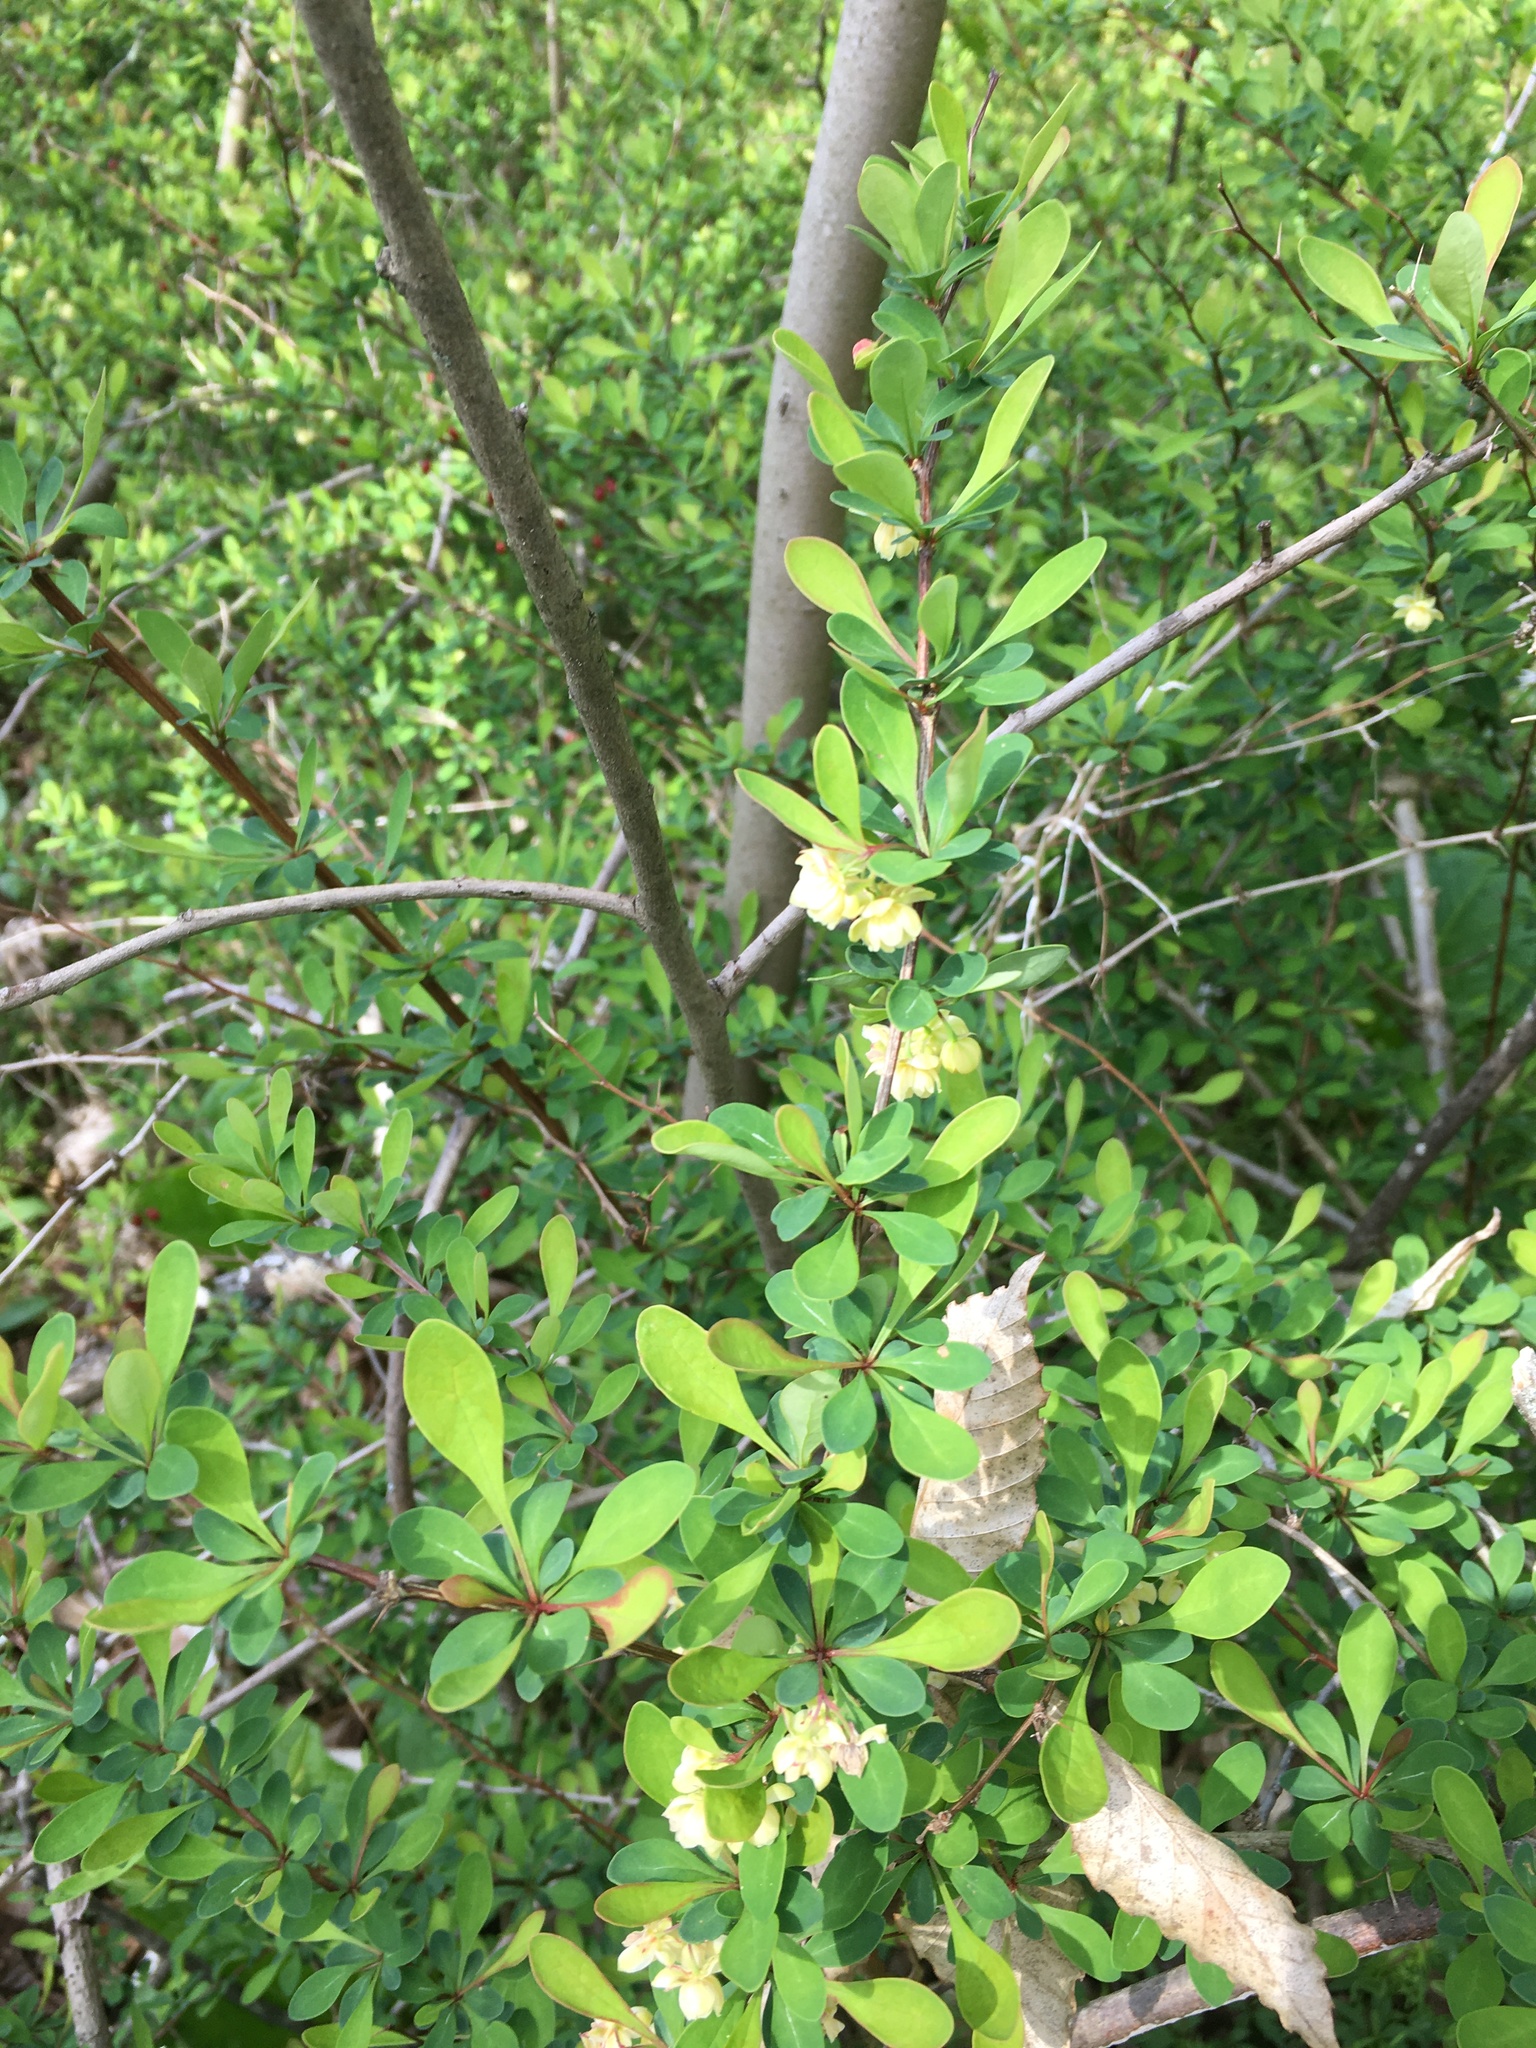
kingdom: Plantae
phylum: Tracheophyta
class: Magnoliopsida
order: Ranunculales
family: Berberidaceae
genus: Berberis
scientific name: Berberis thunbergii
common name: Japanese barberry
